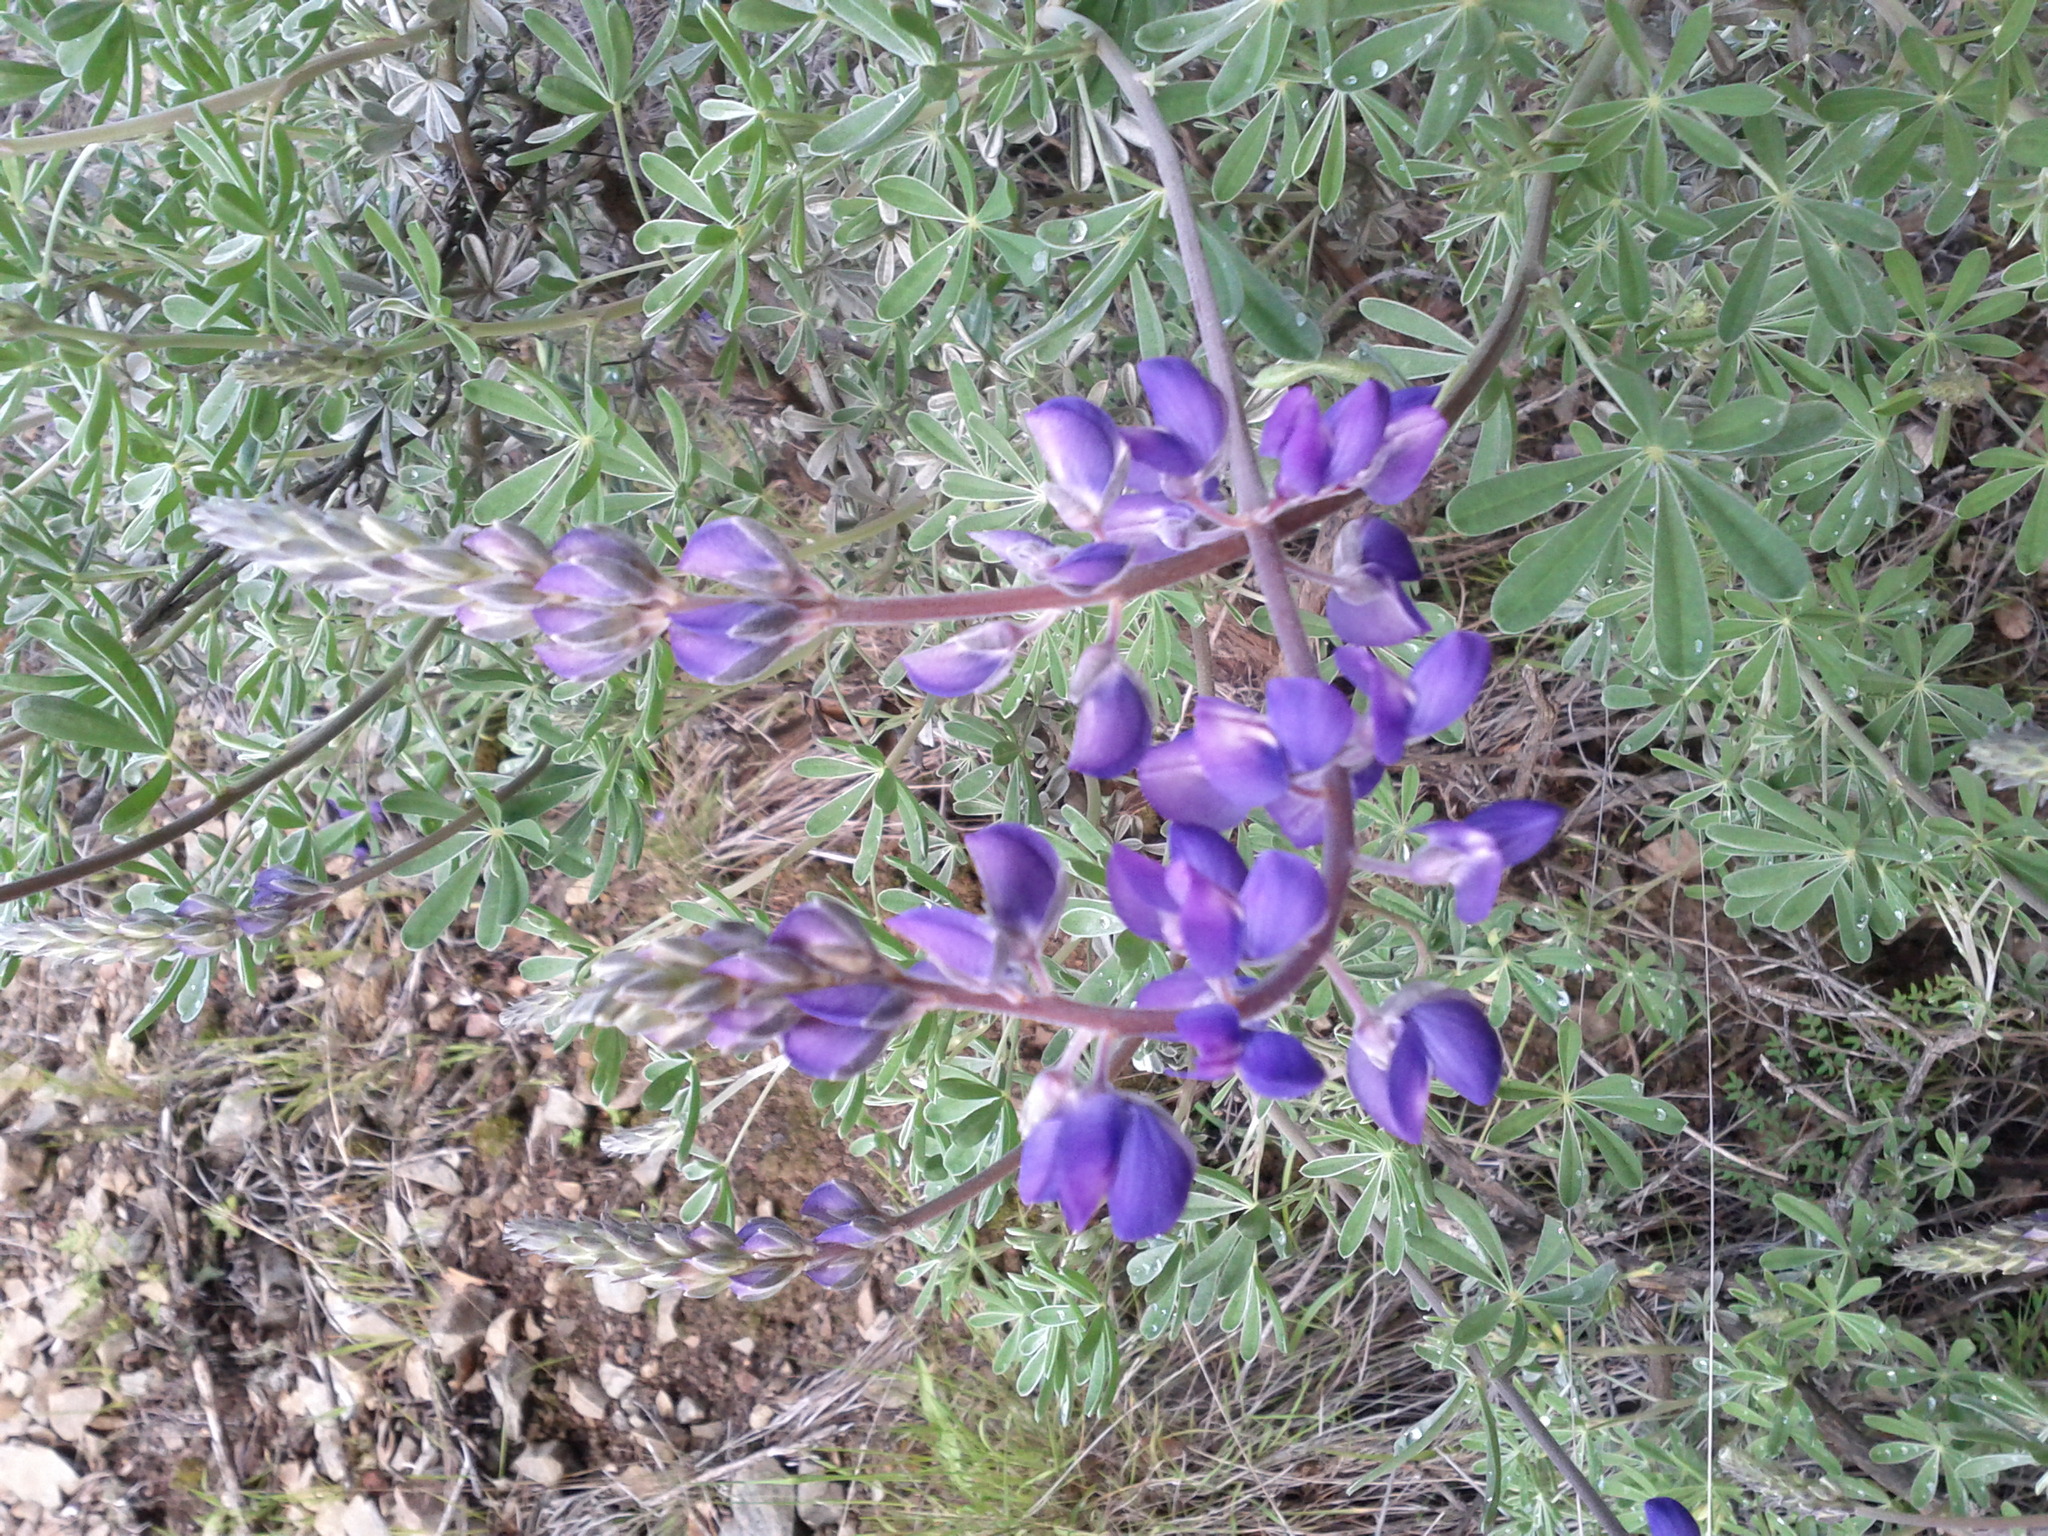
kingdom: Plantae
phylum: Tracheophyta
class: Magnoliopsida
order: Fabales
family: Fabaceae
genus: Lupinus
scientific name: Lupinus albifrons
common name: Foothill lupine
